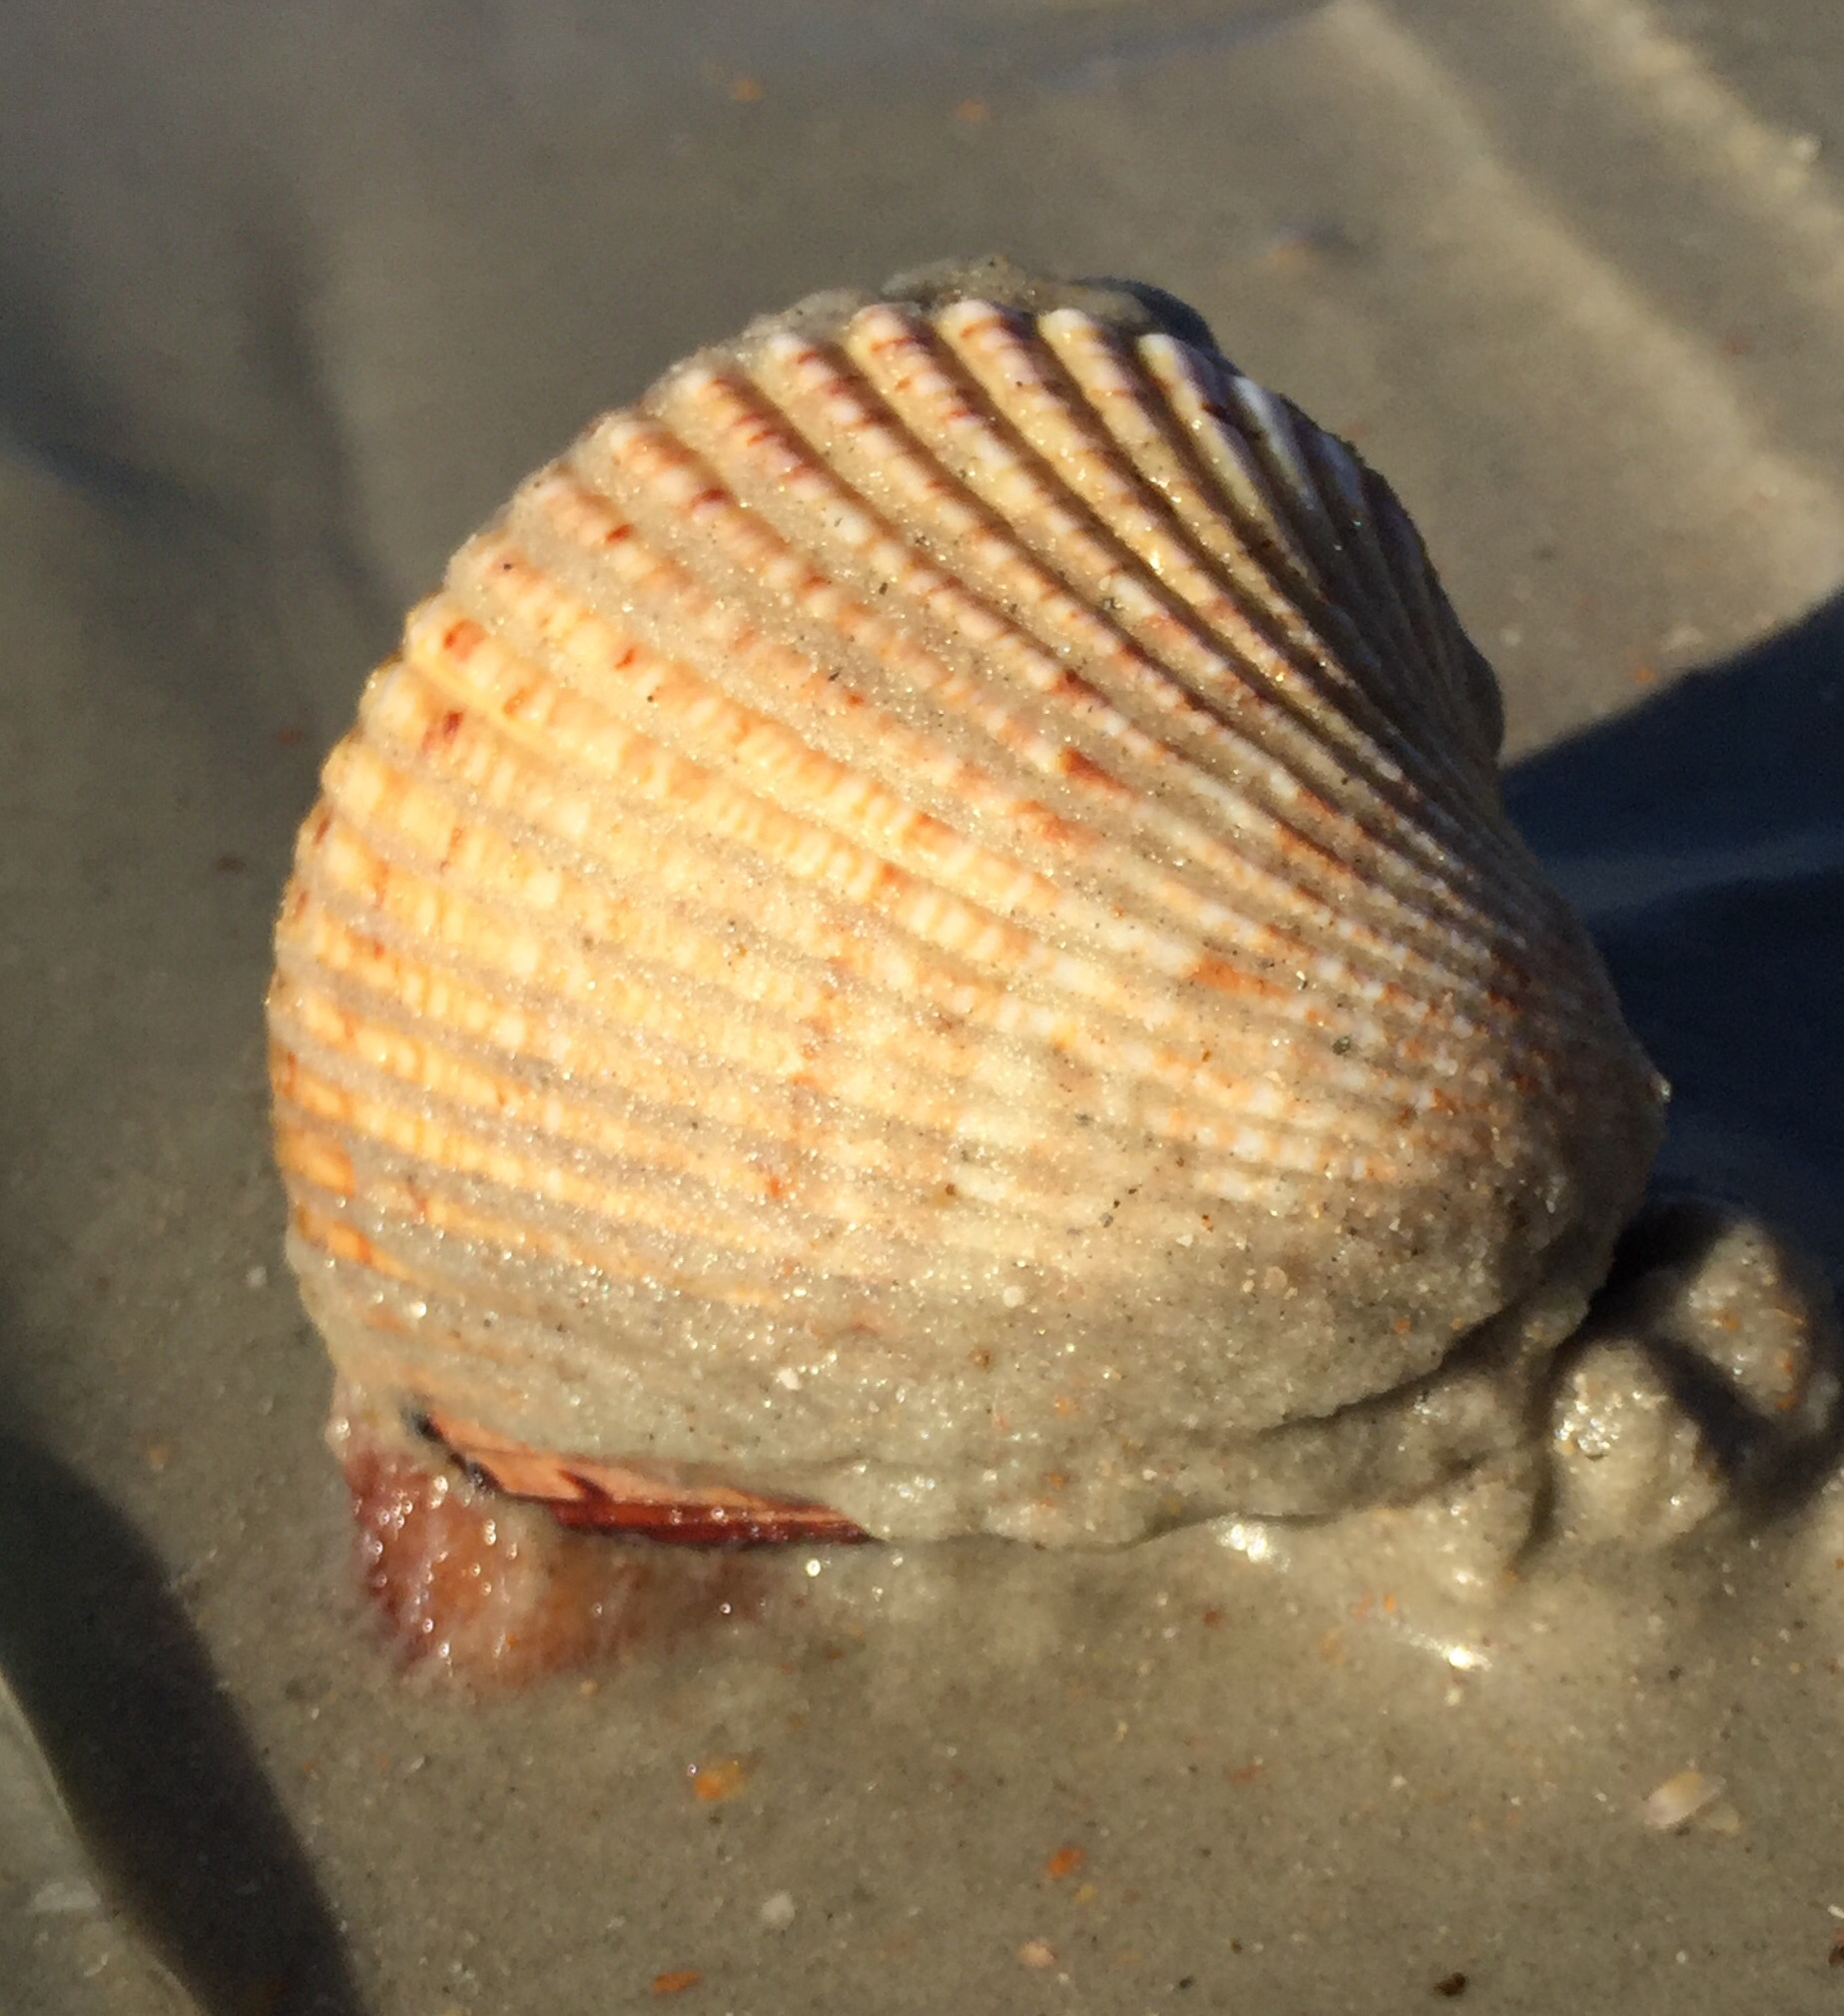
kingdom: Animalia
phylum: Mollusca
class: Bivalvia
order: Cardiida
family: Cardiidae
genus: Dinocardium
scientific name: Dinocardium robustum
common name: Atlantic giant cockle
